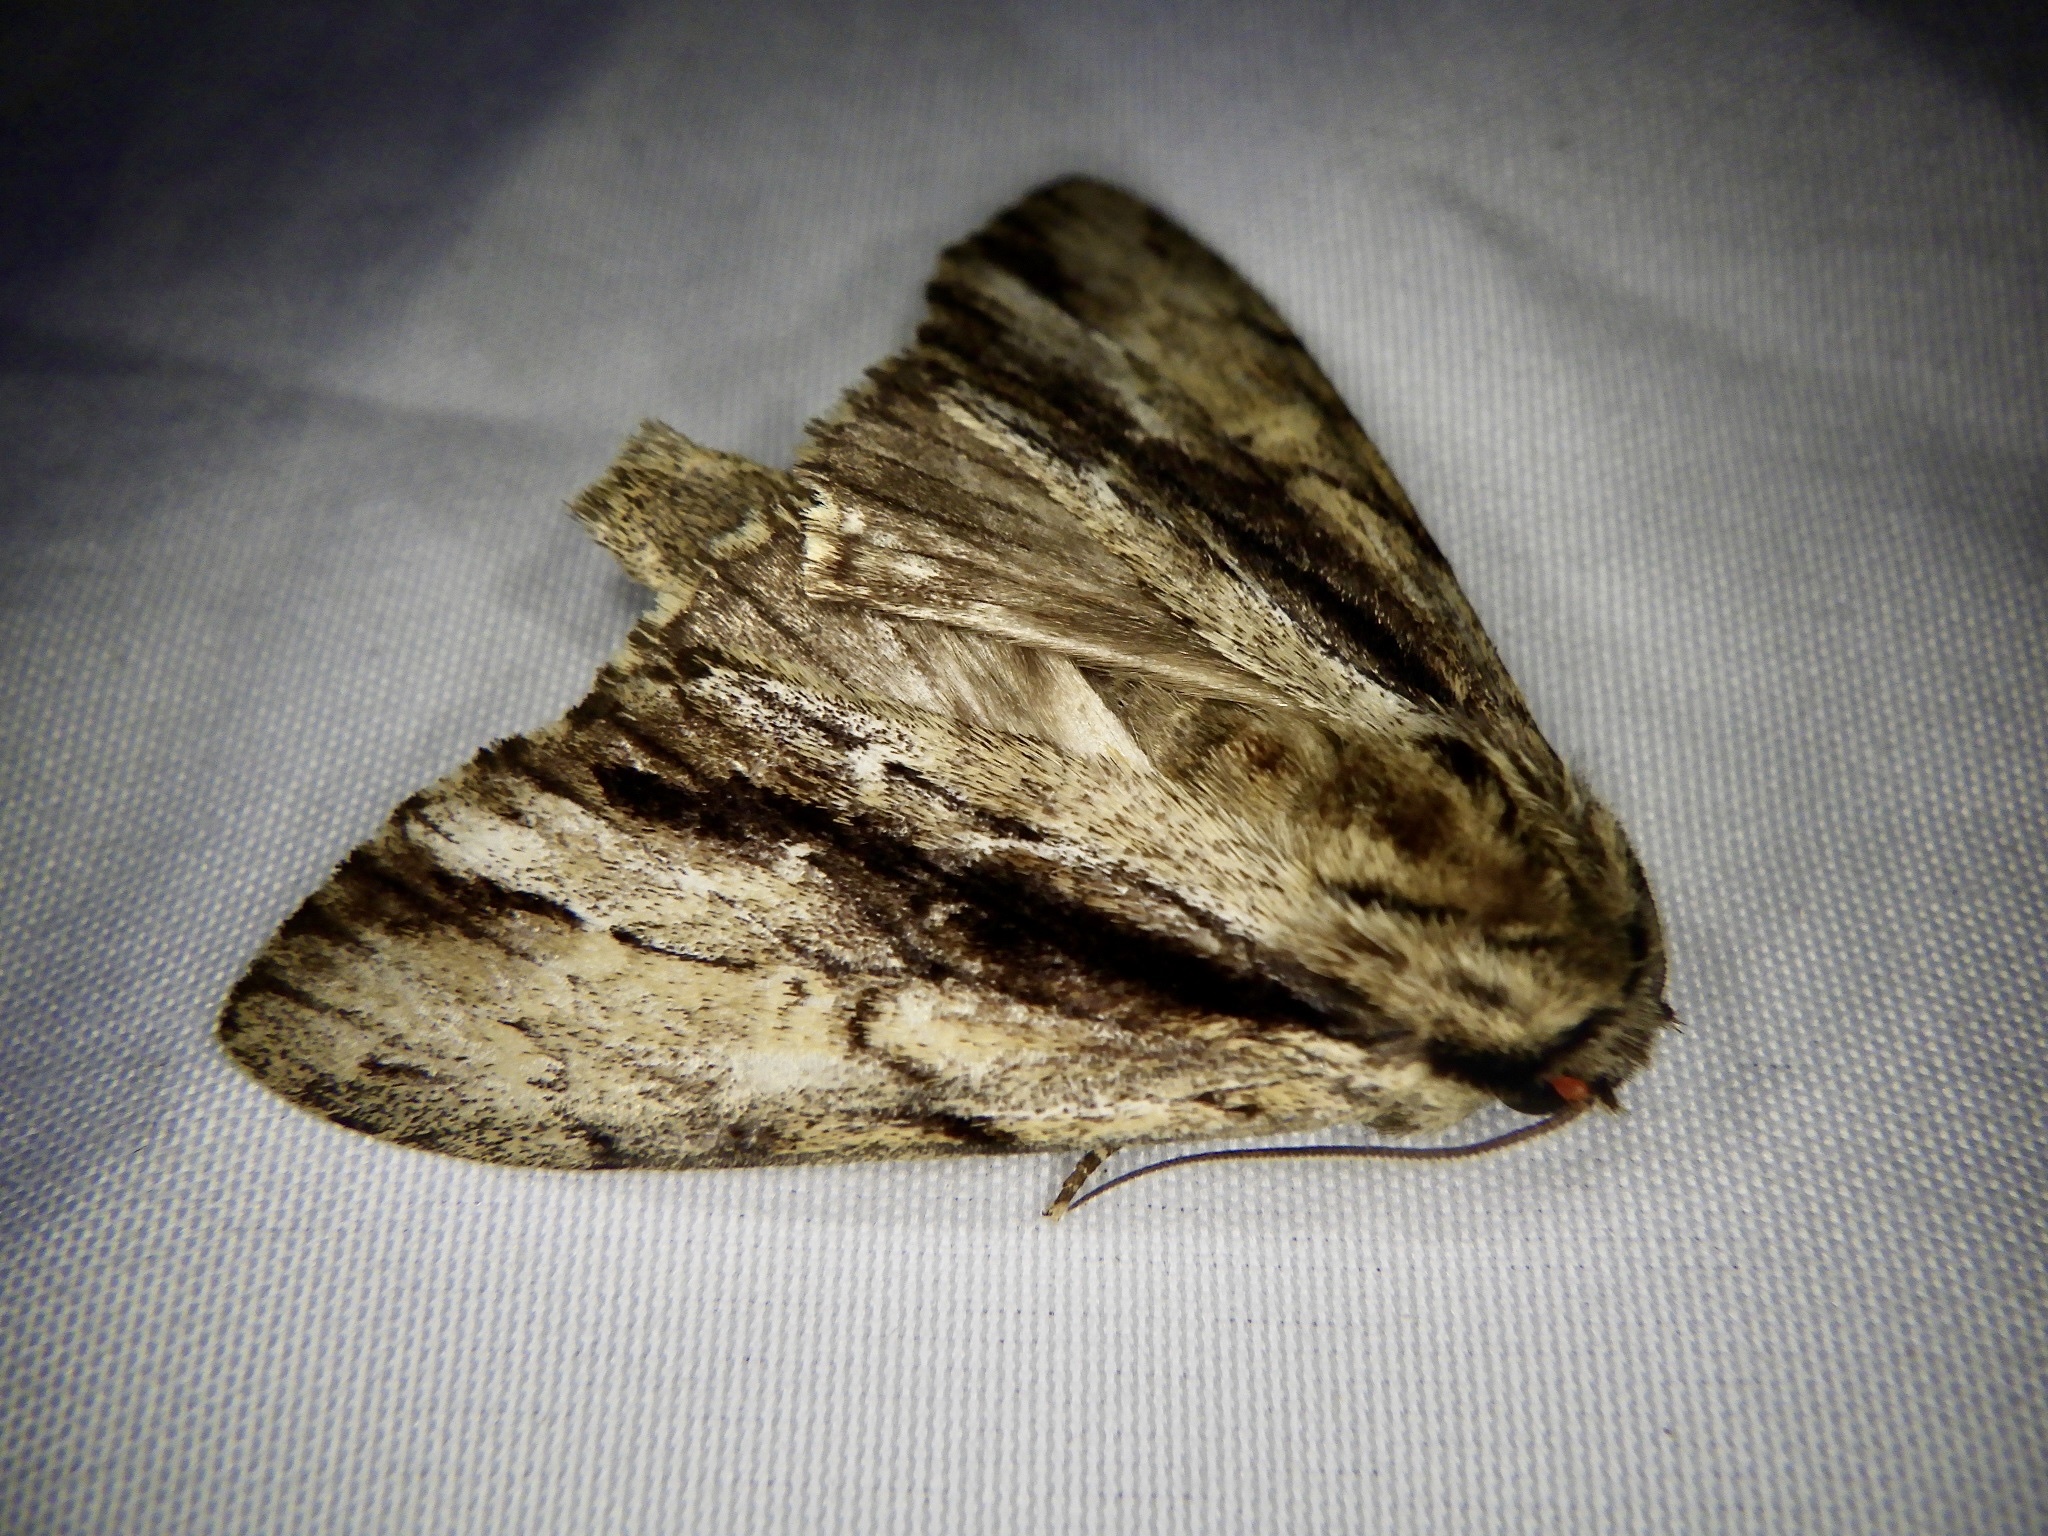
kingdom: Animalia
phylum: Arthropoda
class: Insecta
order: Lepidoptera
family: Notodontidae
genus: Shaka
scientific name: Shaka atrovittatus
